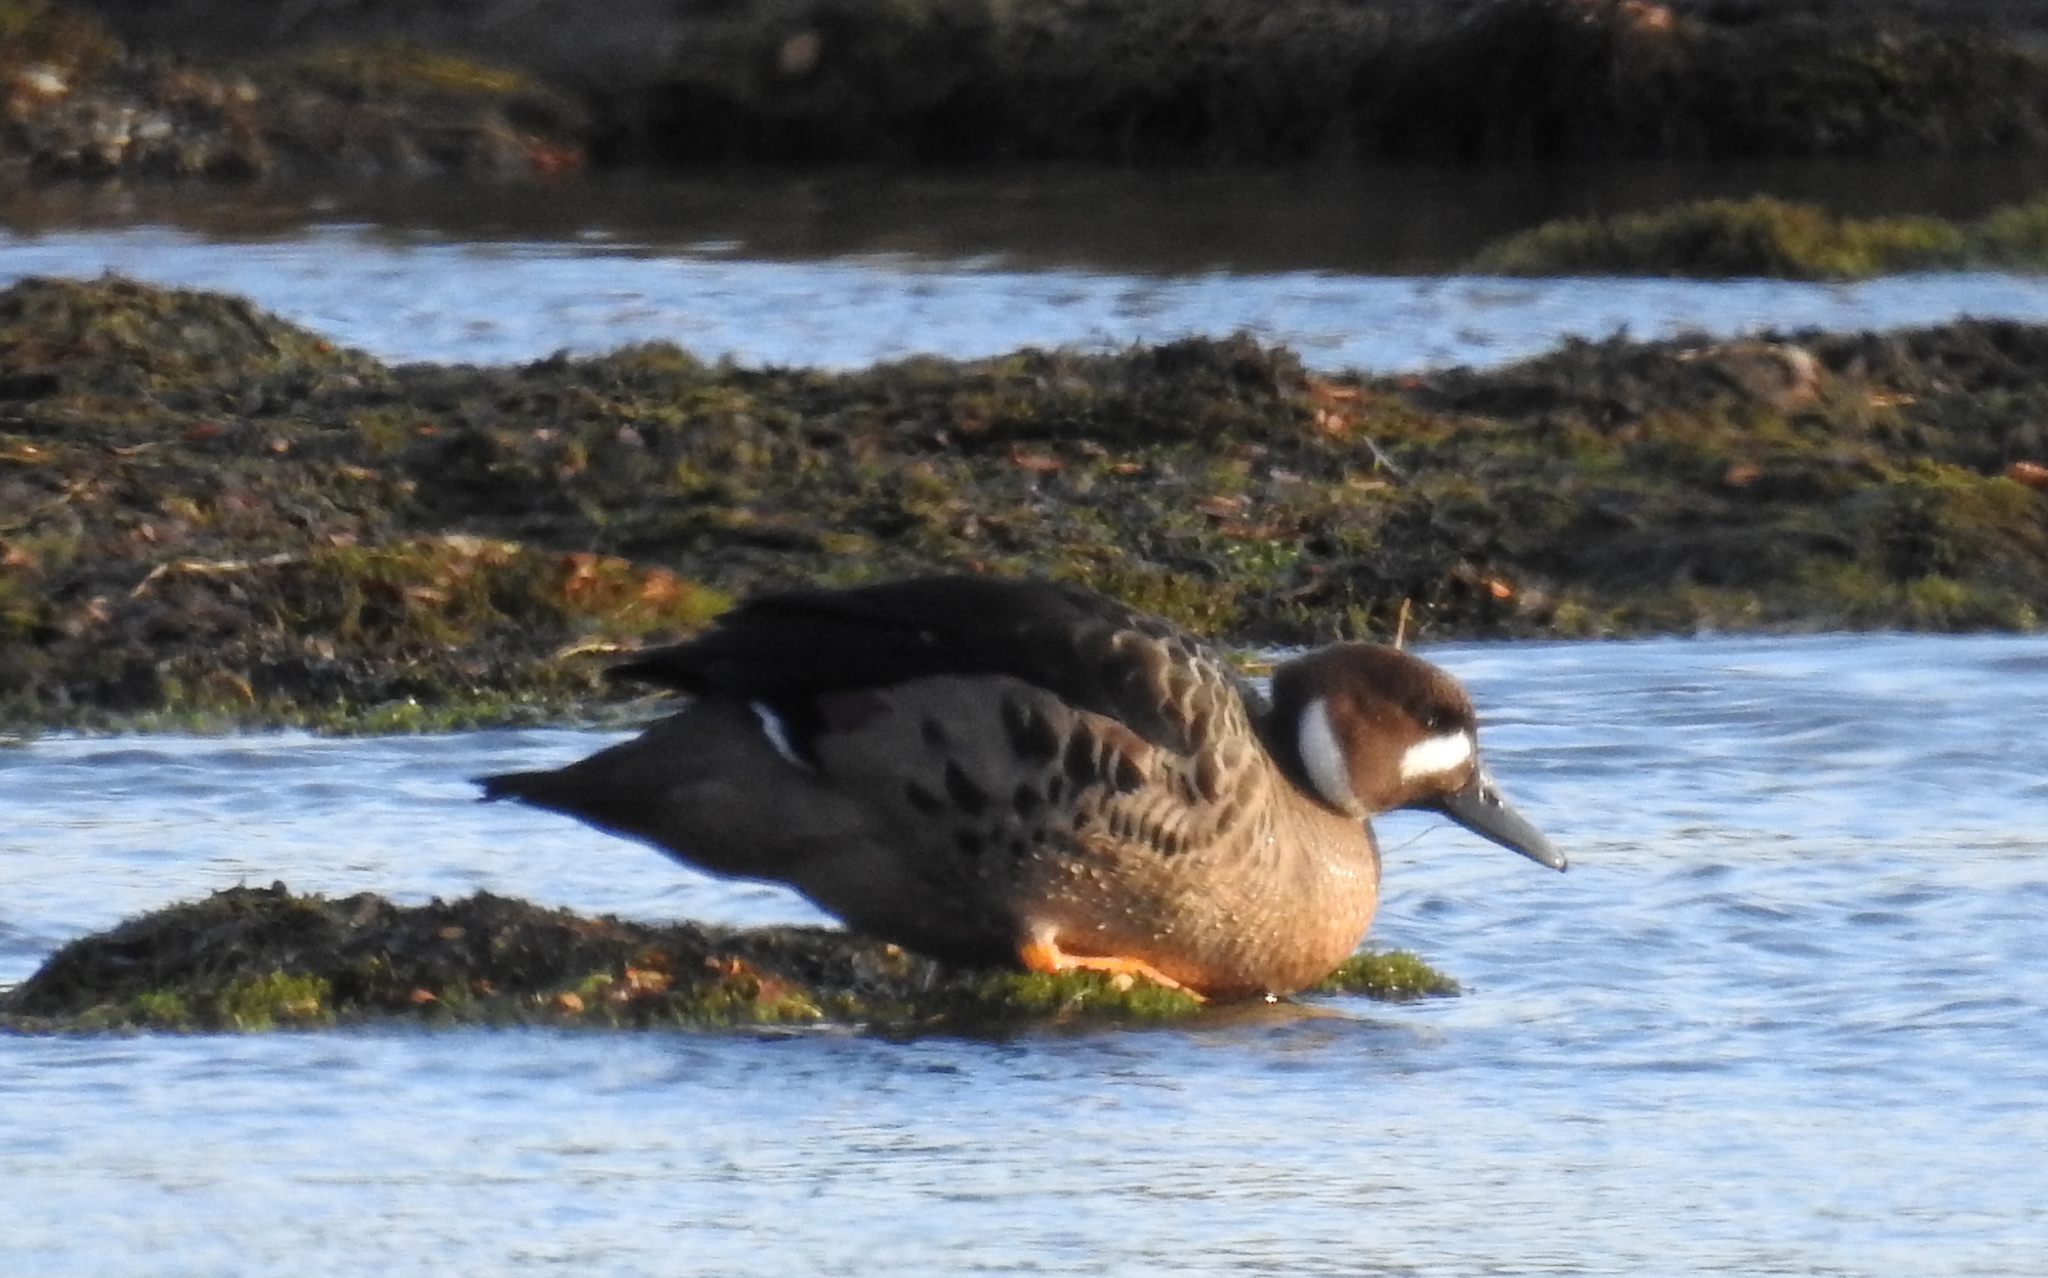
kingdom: Animalia
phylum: Chordata
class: Aves
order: Anseriformes
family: Anatidae
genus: Speculanas
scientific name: Speculanas specularis
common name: Bronze-winged duck
